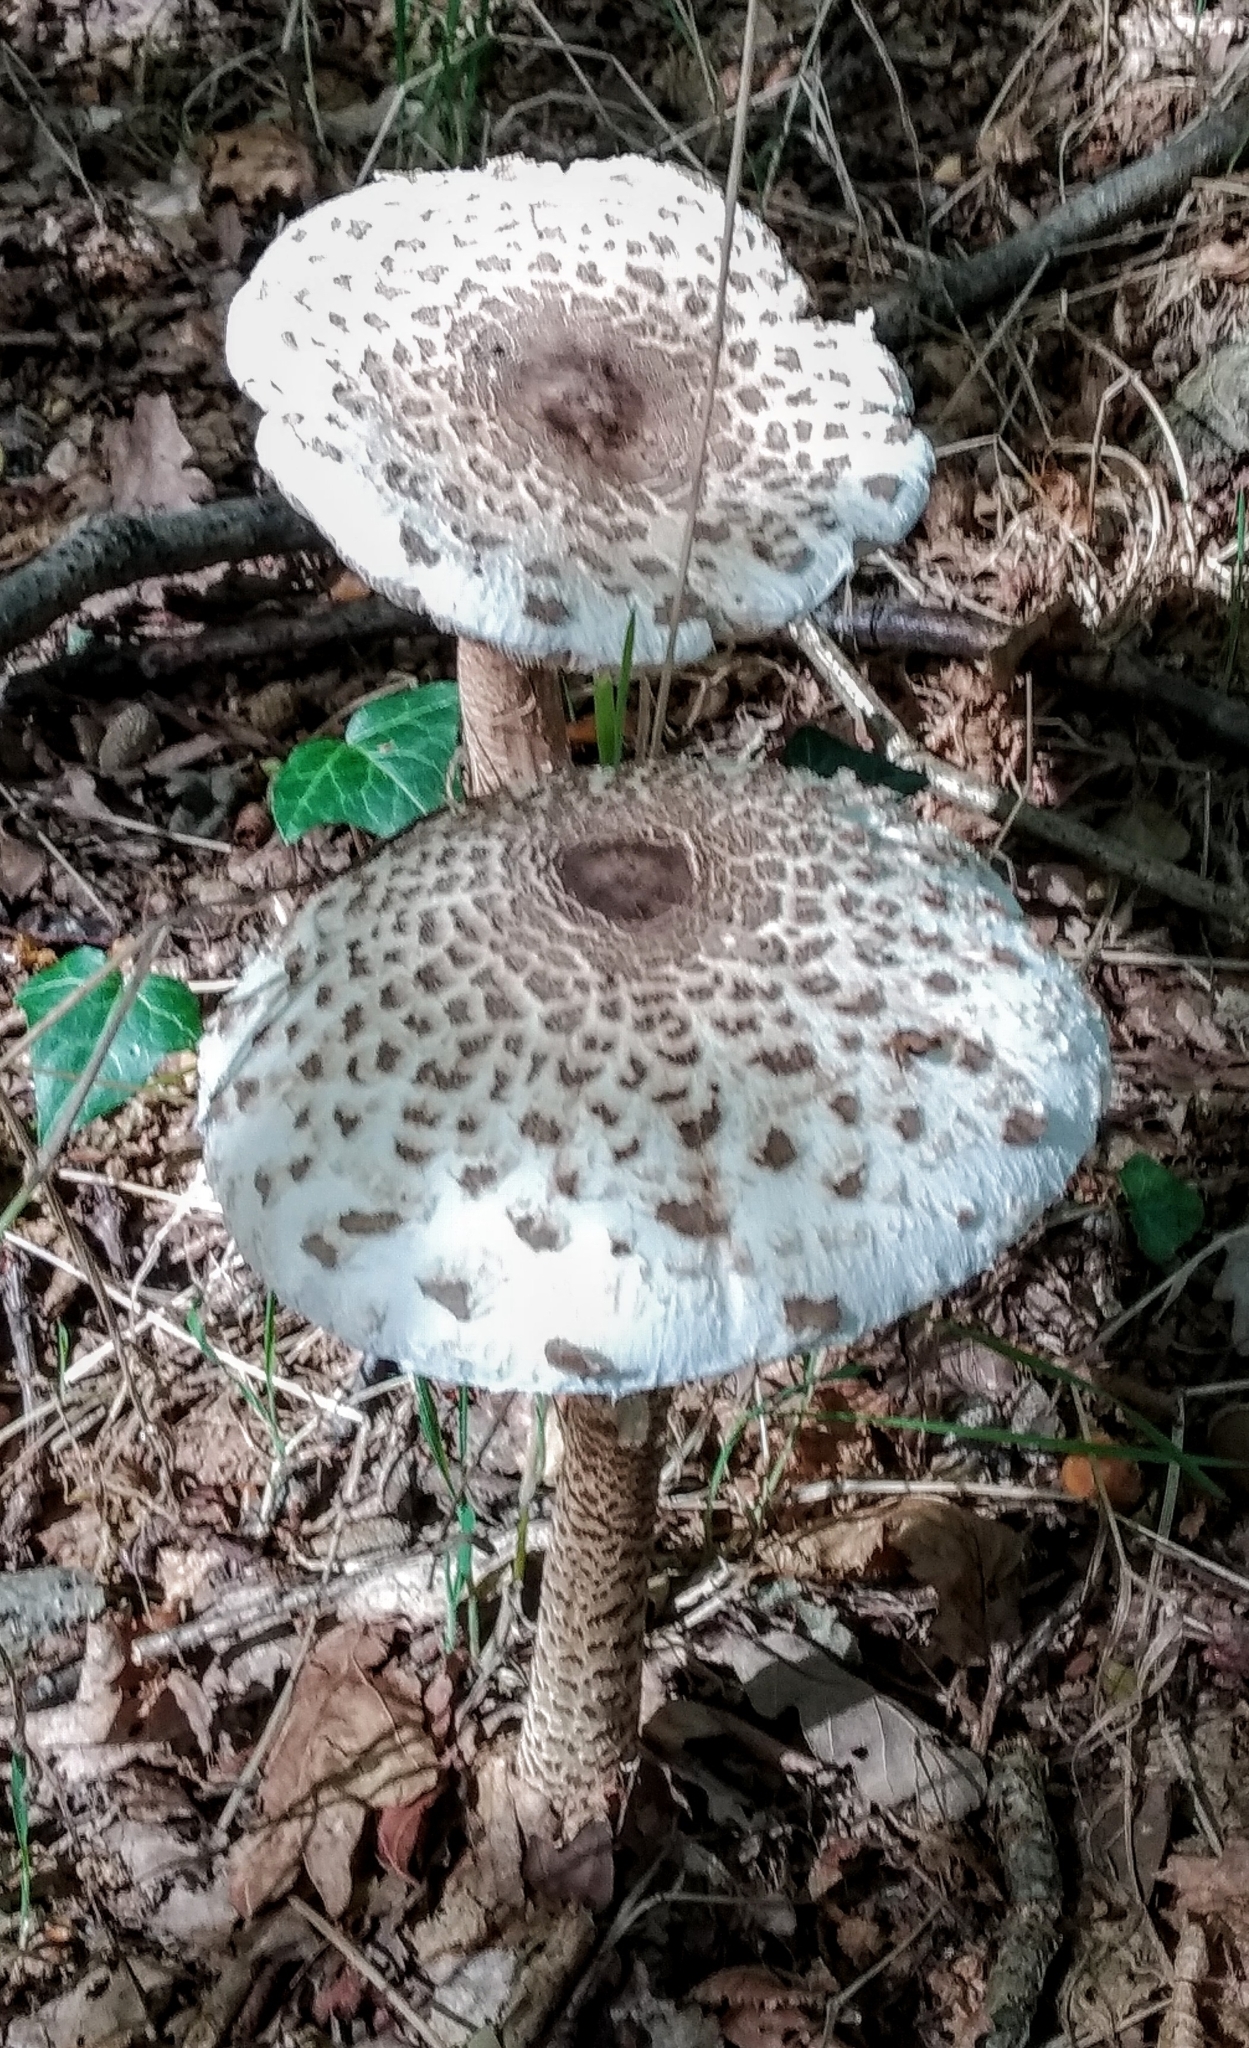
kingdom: Fungi
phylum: Basidiomycota
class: Agaricomycetes
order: Agaricales
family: Agaricaceae
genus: Macrolepiota
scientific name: Macrolepiota procera
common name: Parasol
